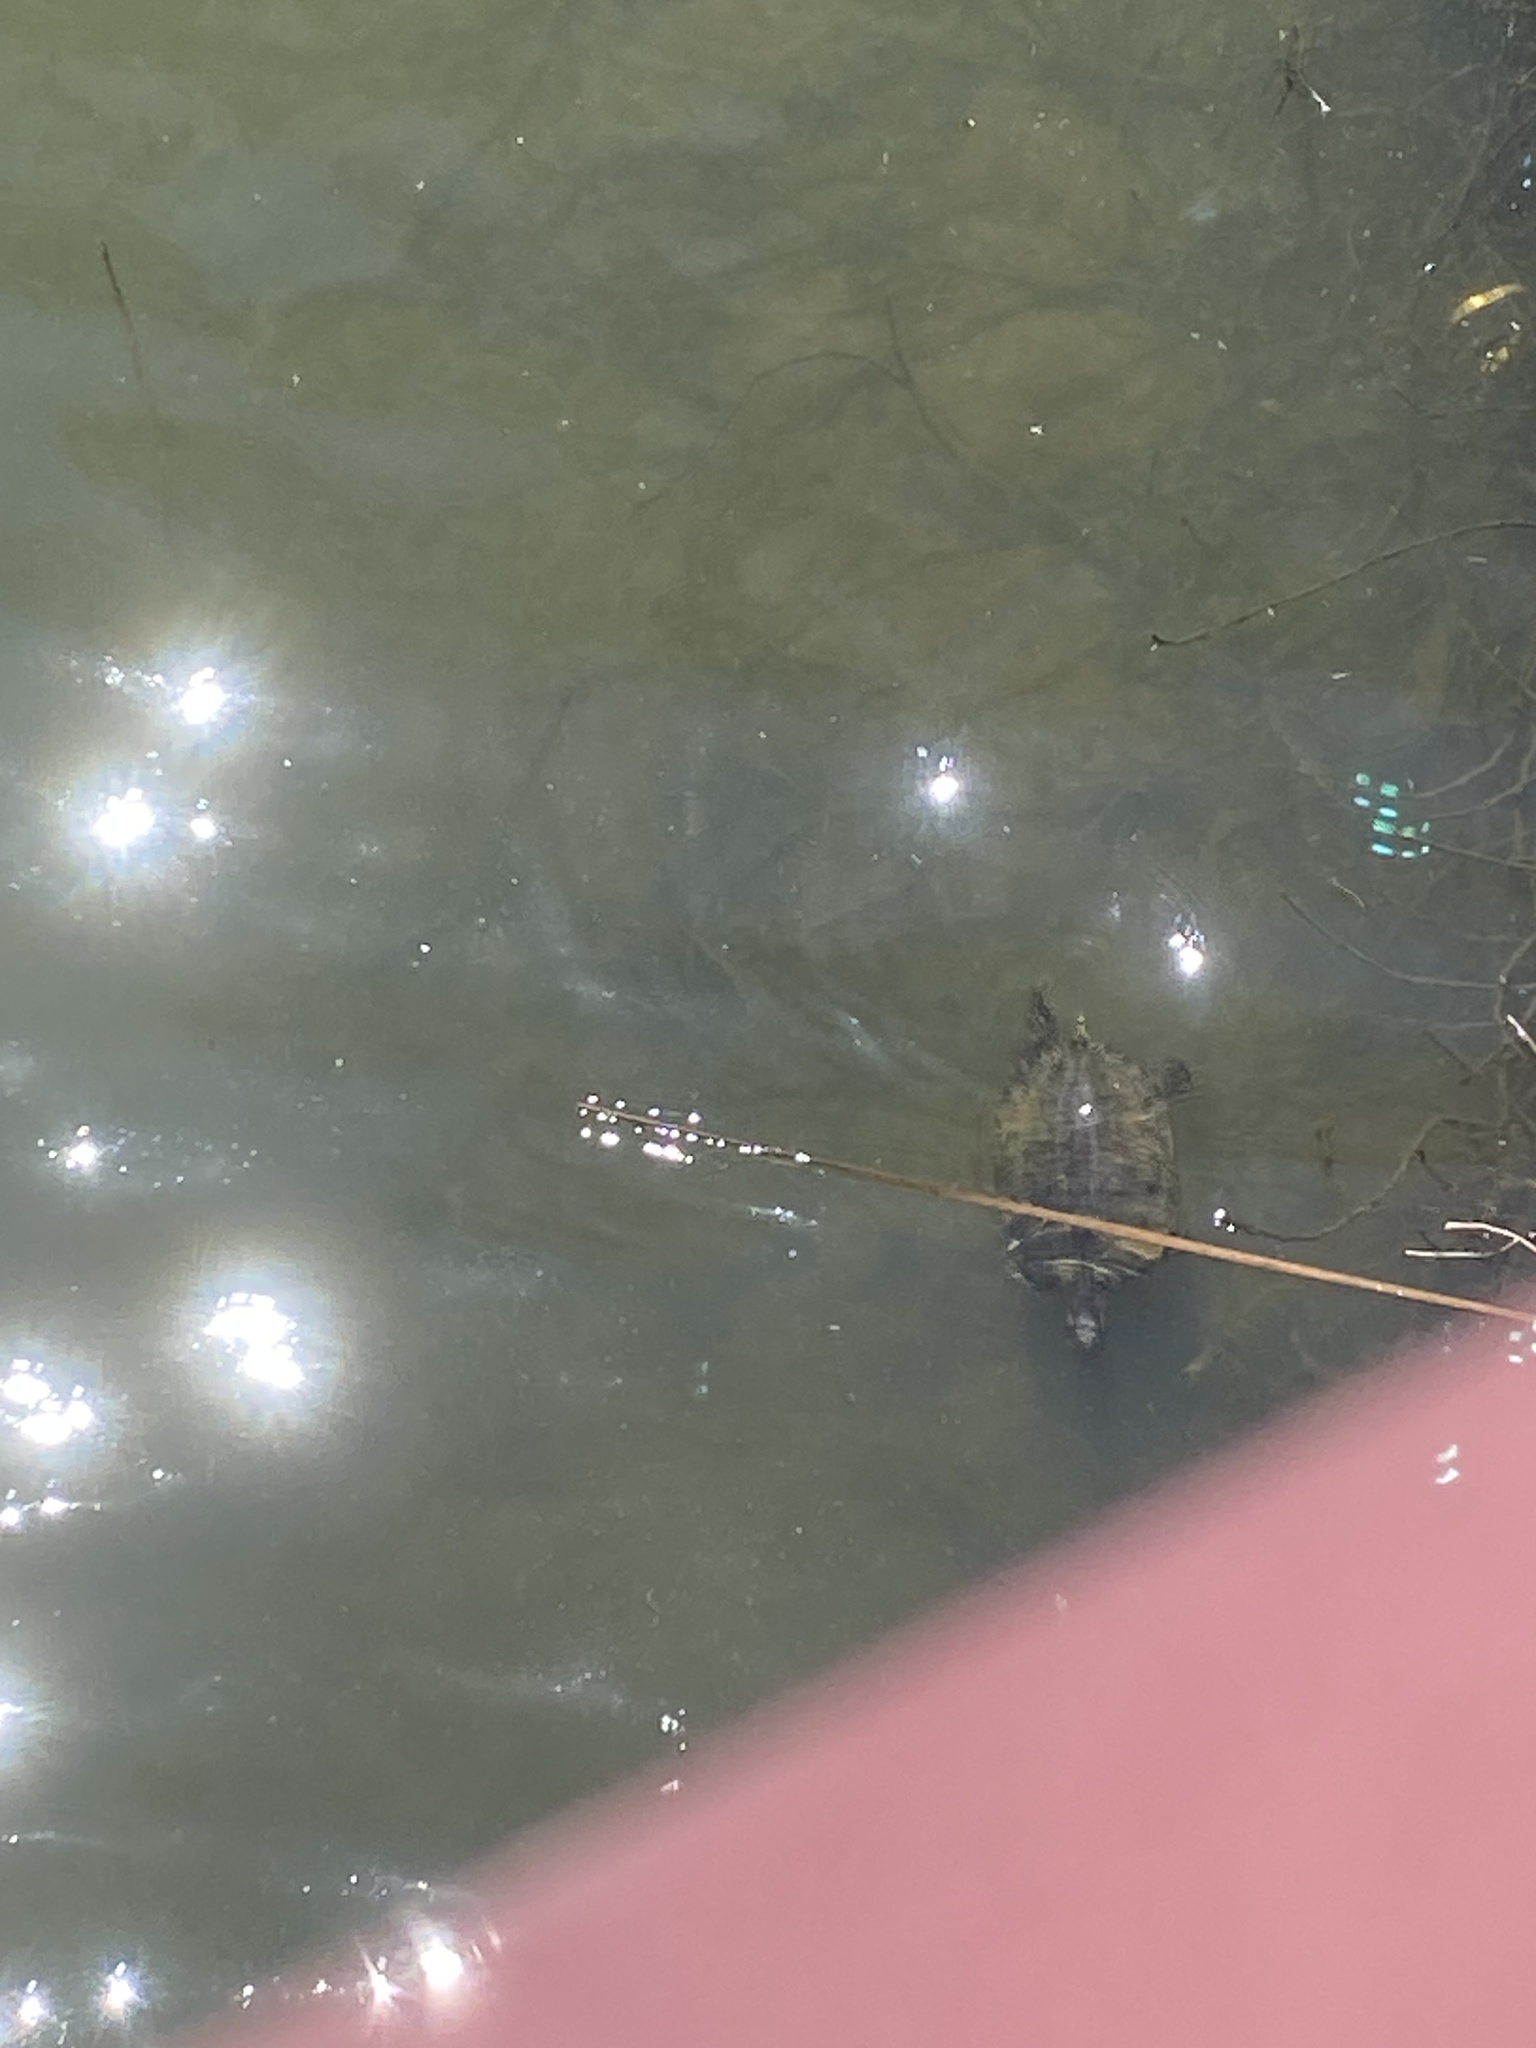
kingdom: Animalia
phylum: Chordata
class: Testudines
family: Emydidae
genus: Trachemys
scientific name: Trachemys scripta
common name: Slider
